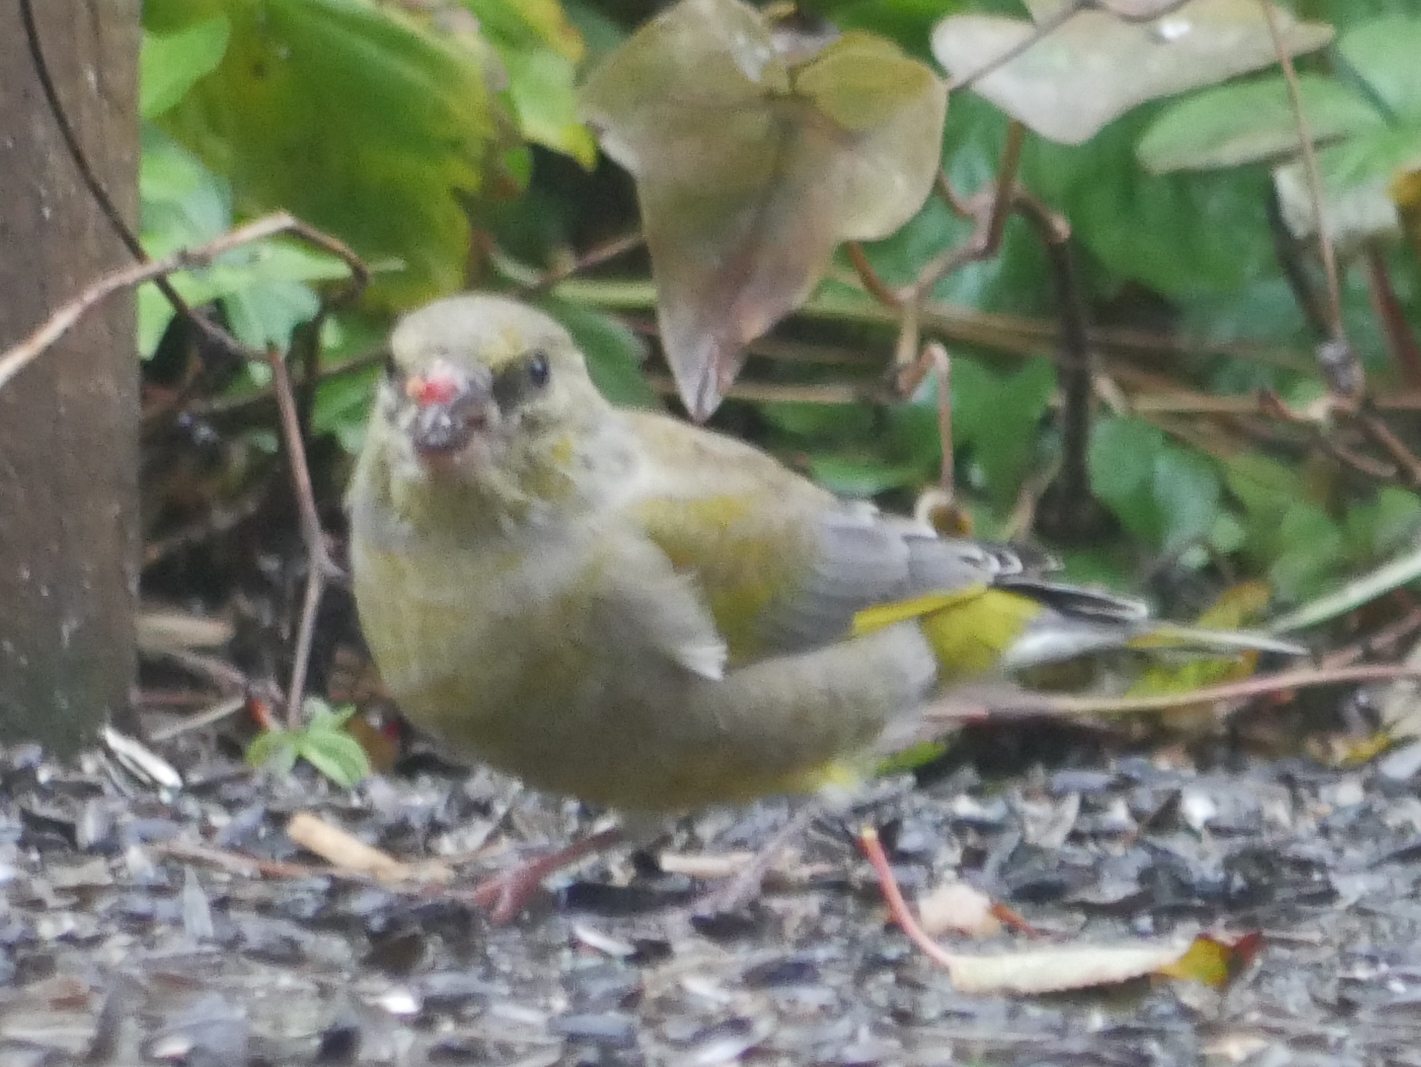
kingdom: Plantae
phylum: Tracheophyta
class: Liliopsida
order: Poales
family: Poaceae
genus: Chloris
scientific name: Chloris chloris
